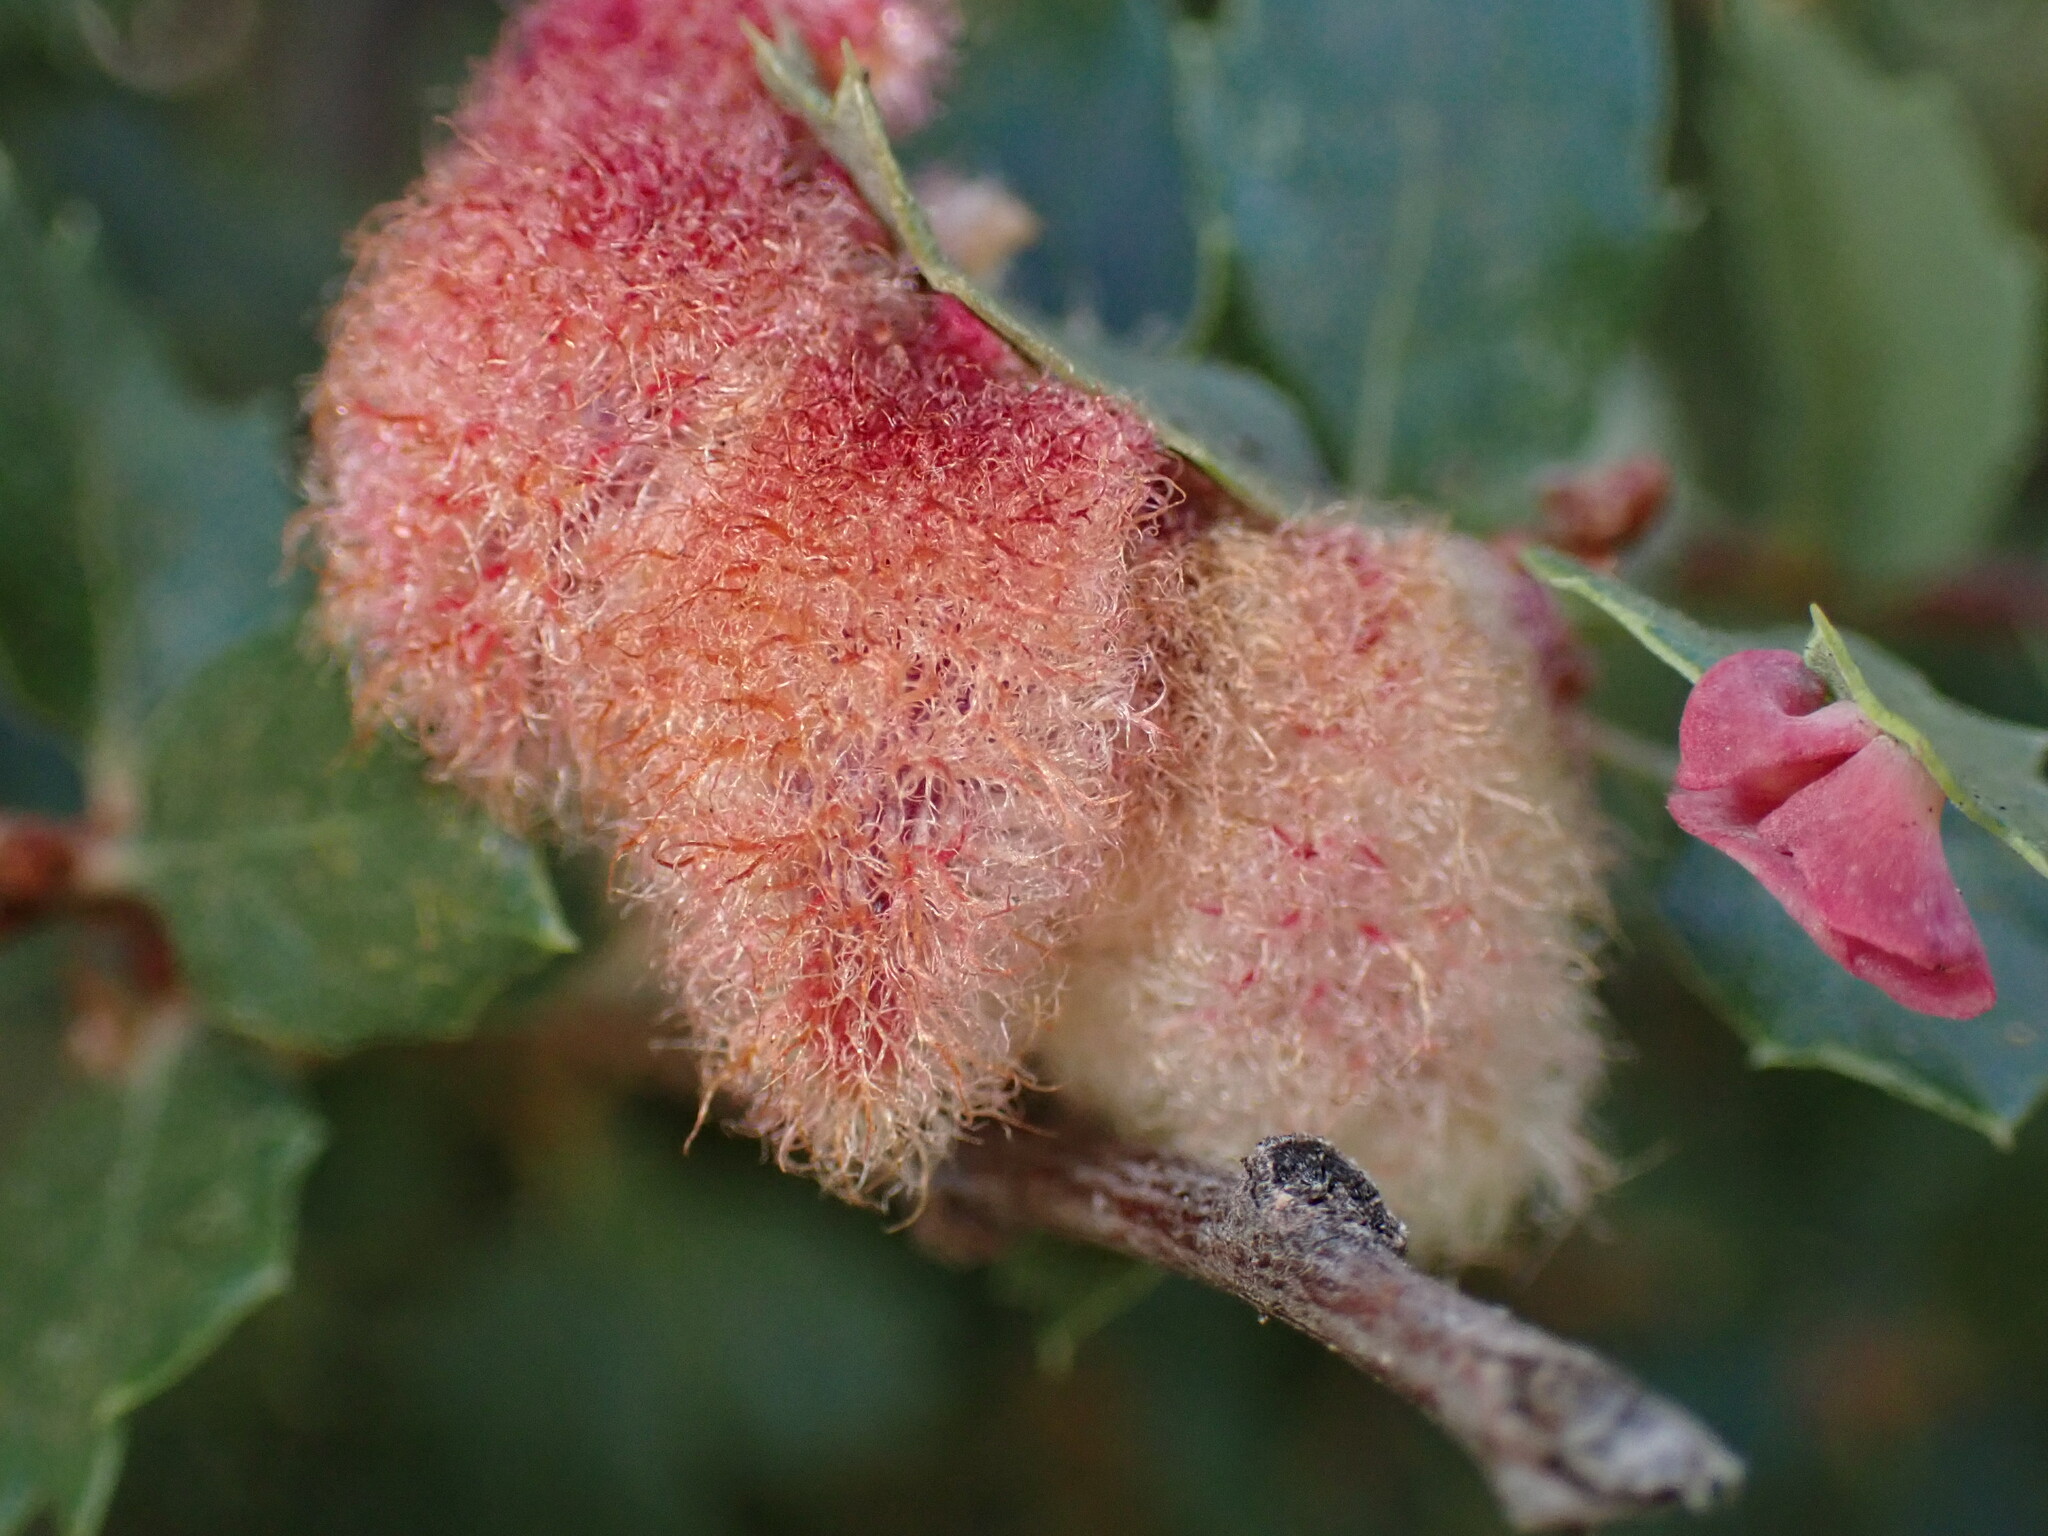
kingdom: Animalia
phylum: Arthropoda
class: Insecta
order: Hymenoptera
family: Cynipidae
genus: Andricus
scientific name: Andricus
